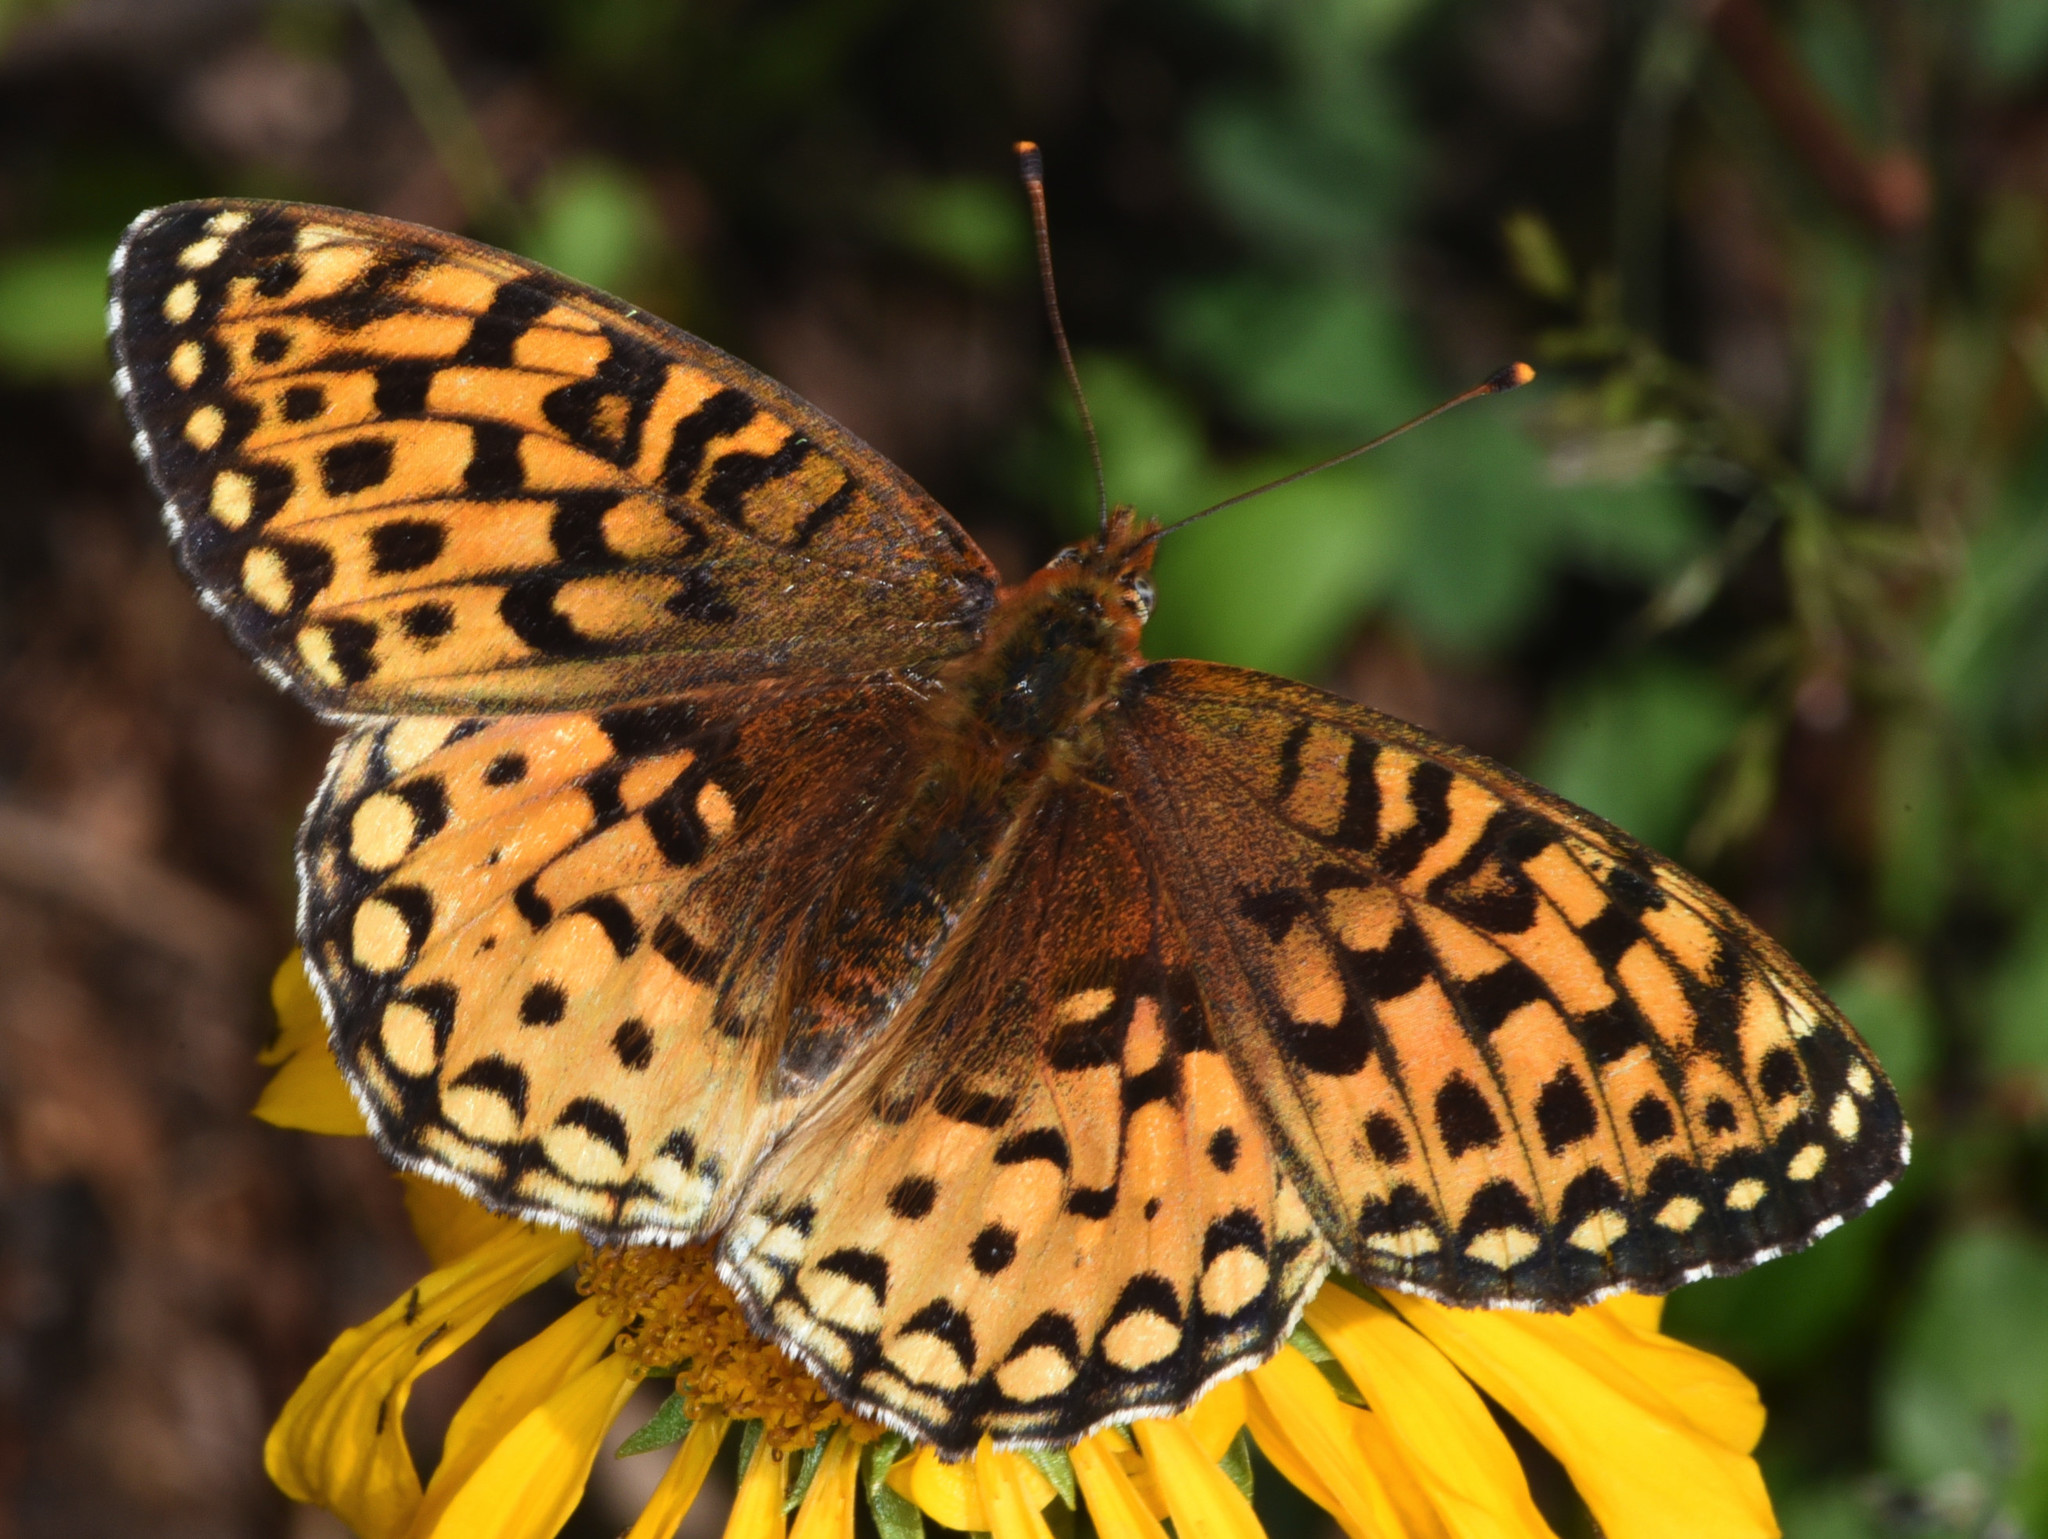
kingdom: Animalia
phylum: Arthropoda
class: Insecta
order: Lepidoptera
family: Nymphalidae
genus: Speyeria
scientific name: Speyeria atlantis
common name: Atlantis fritillary
